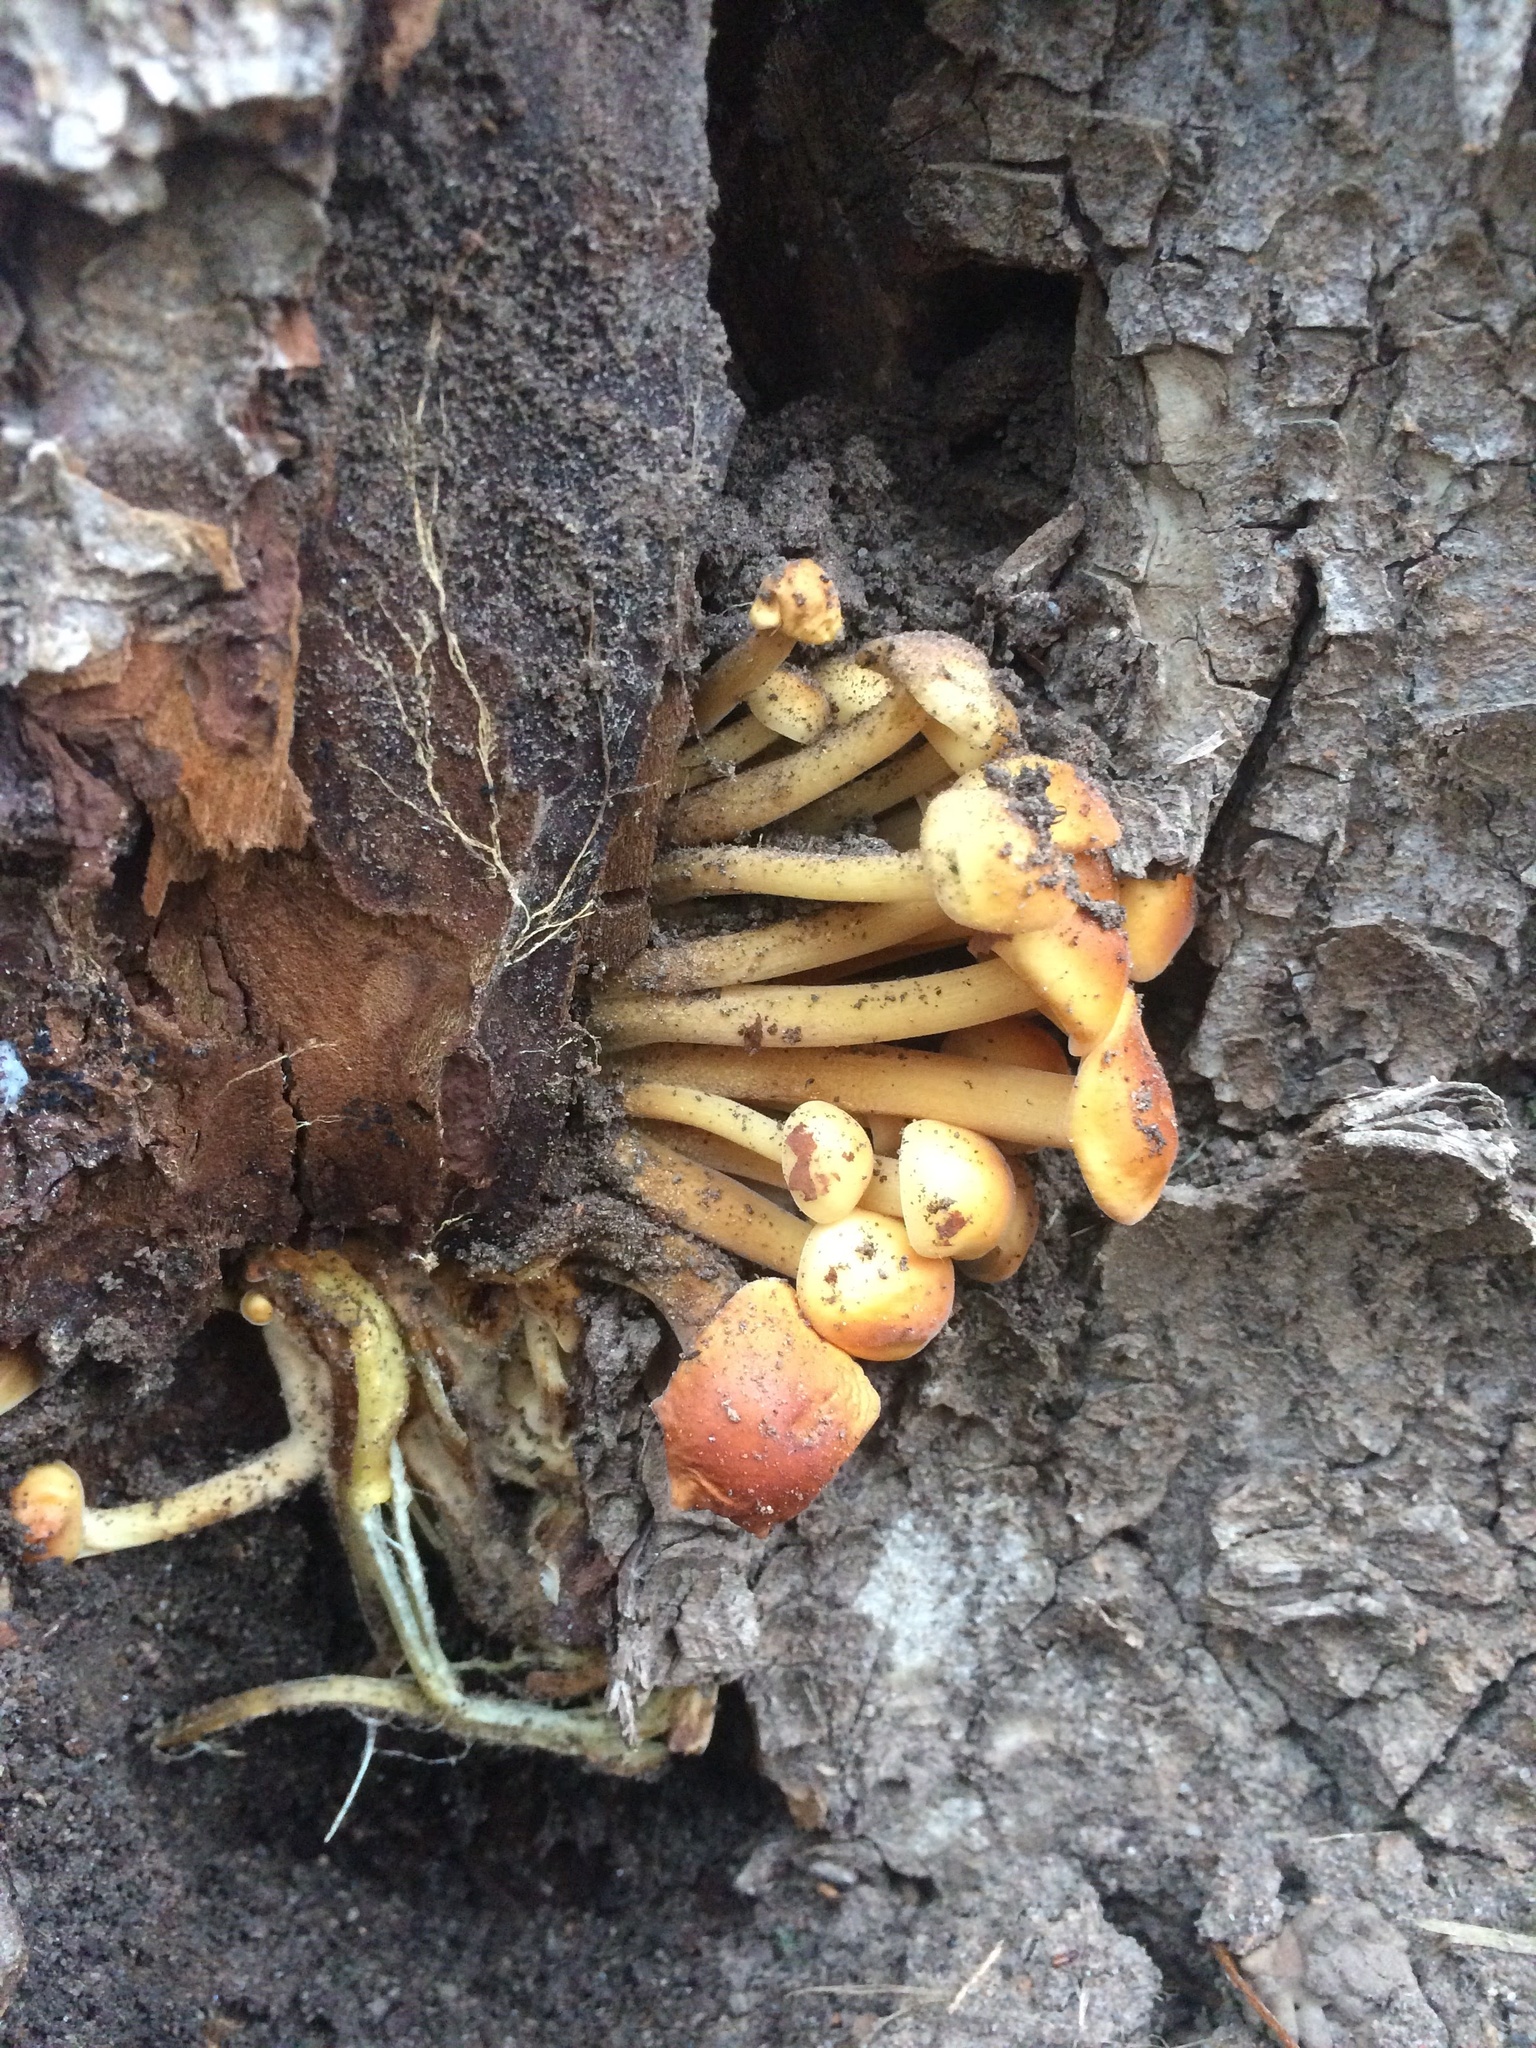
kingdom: Fungi
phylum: Basidiomycota
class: Agaricomycetes
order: Agaricales
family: Physalacriaceae
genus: Flammulina
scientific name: Flammulina
